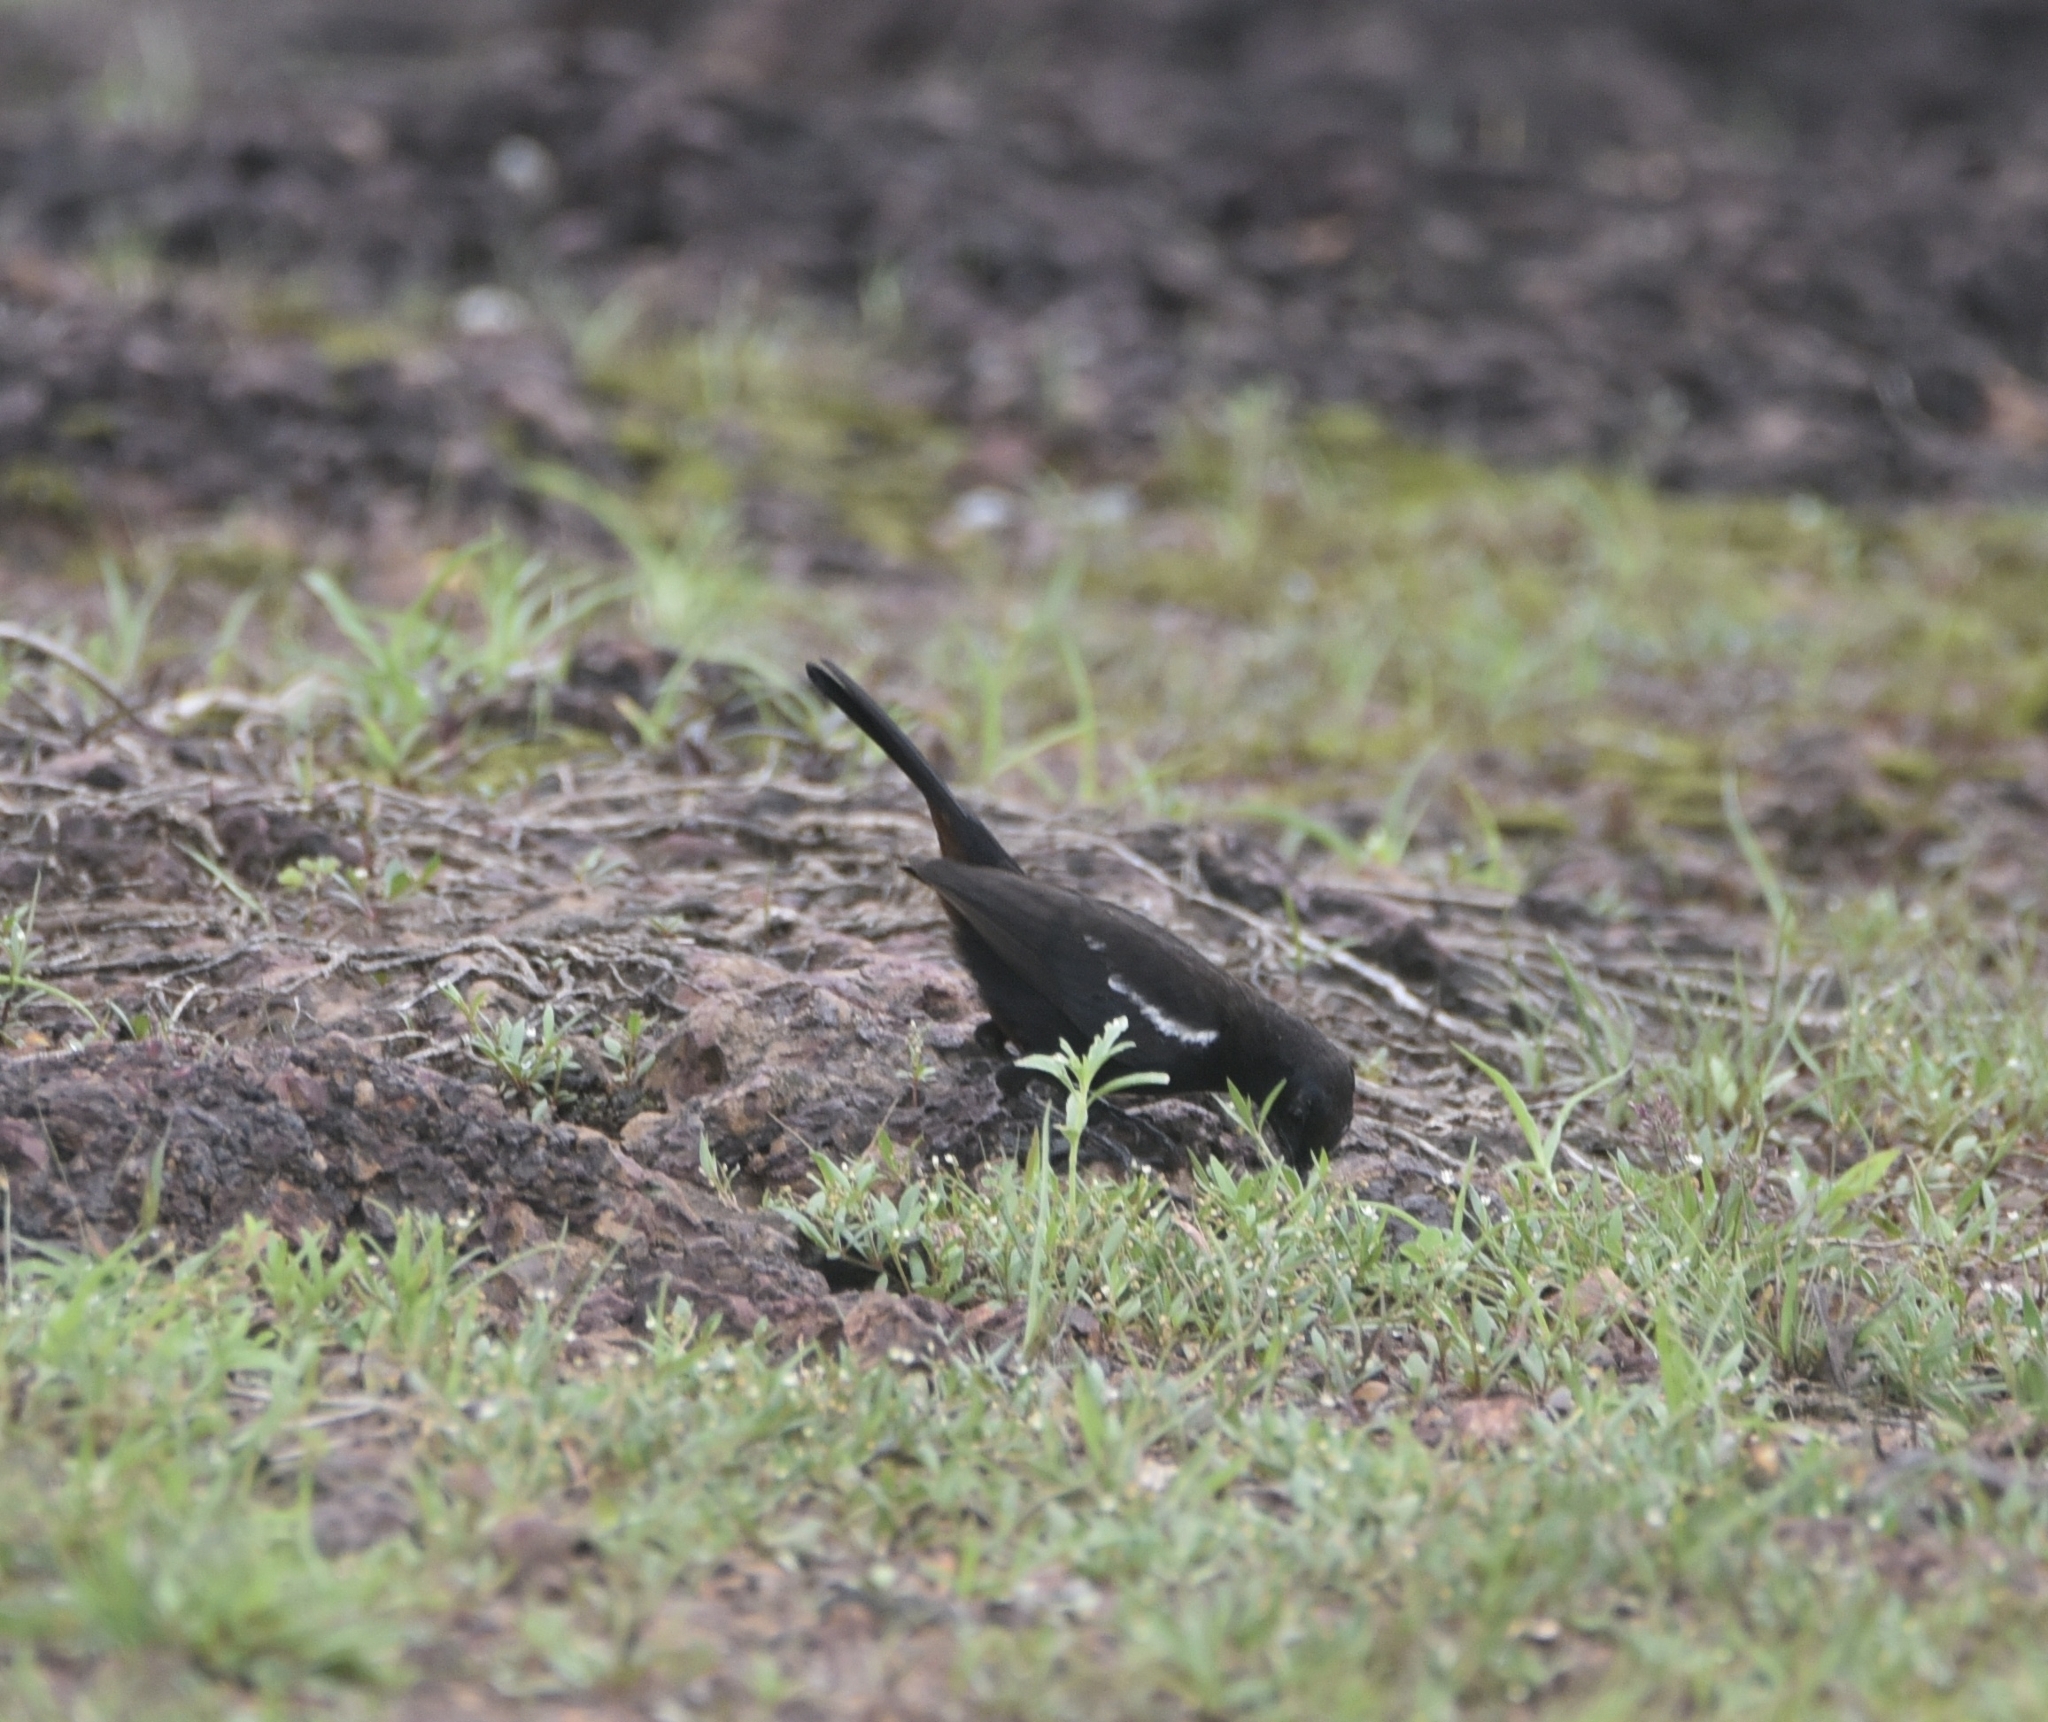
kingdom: Animalia
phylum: Chordata
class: Aves
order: Passeriformes
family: Muscicapidae
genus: Saxicoloides
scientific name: Saxicoloides fulicatus
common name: Indian robin
